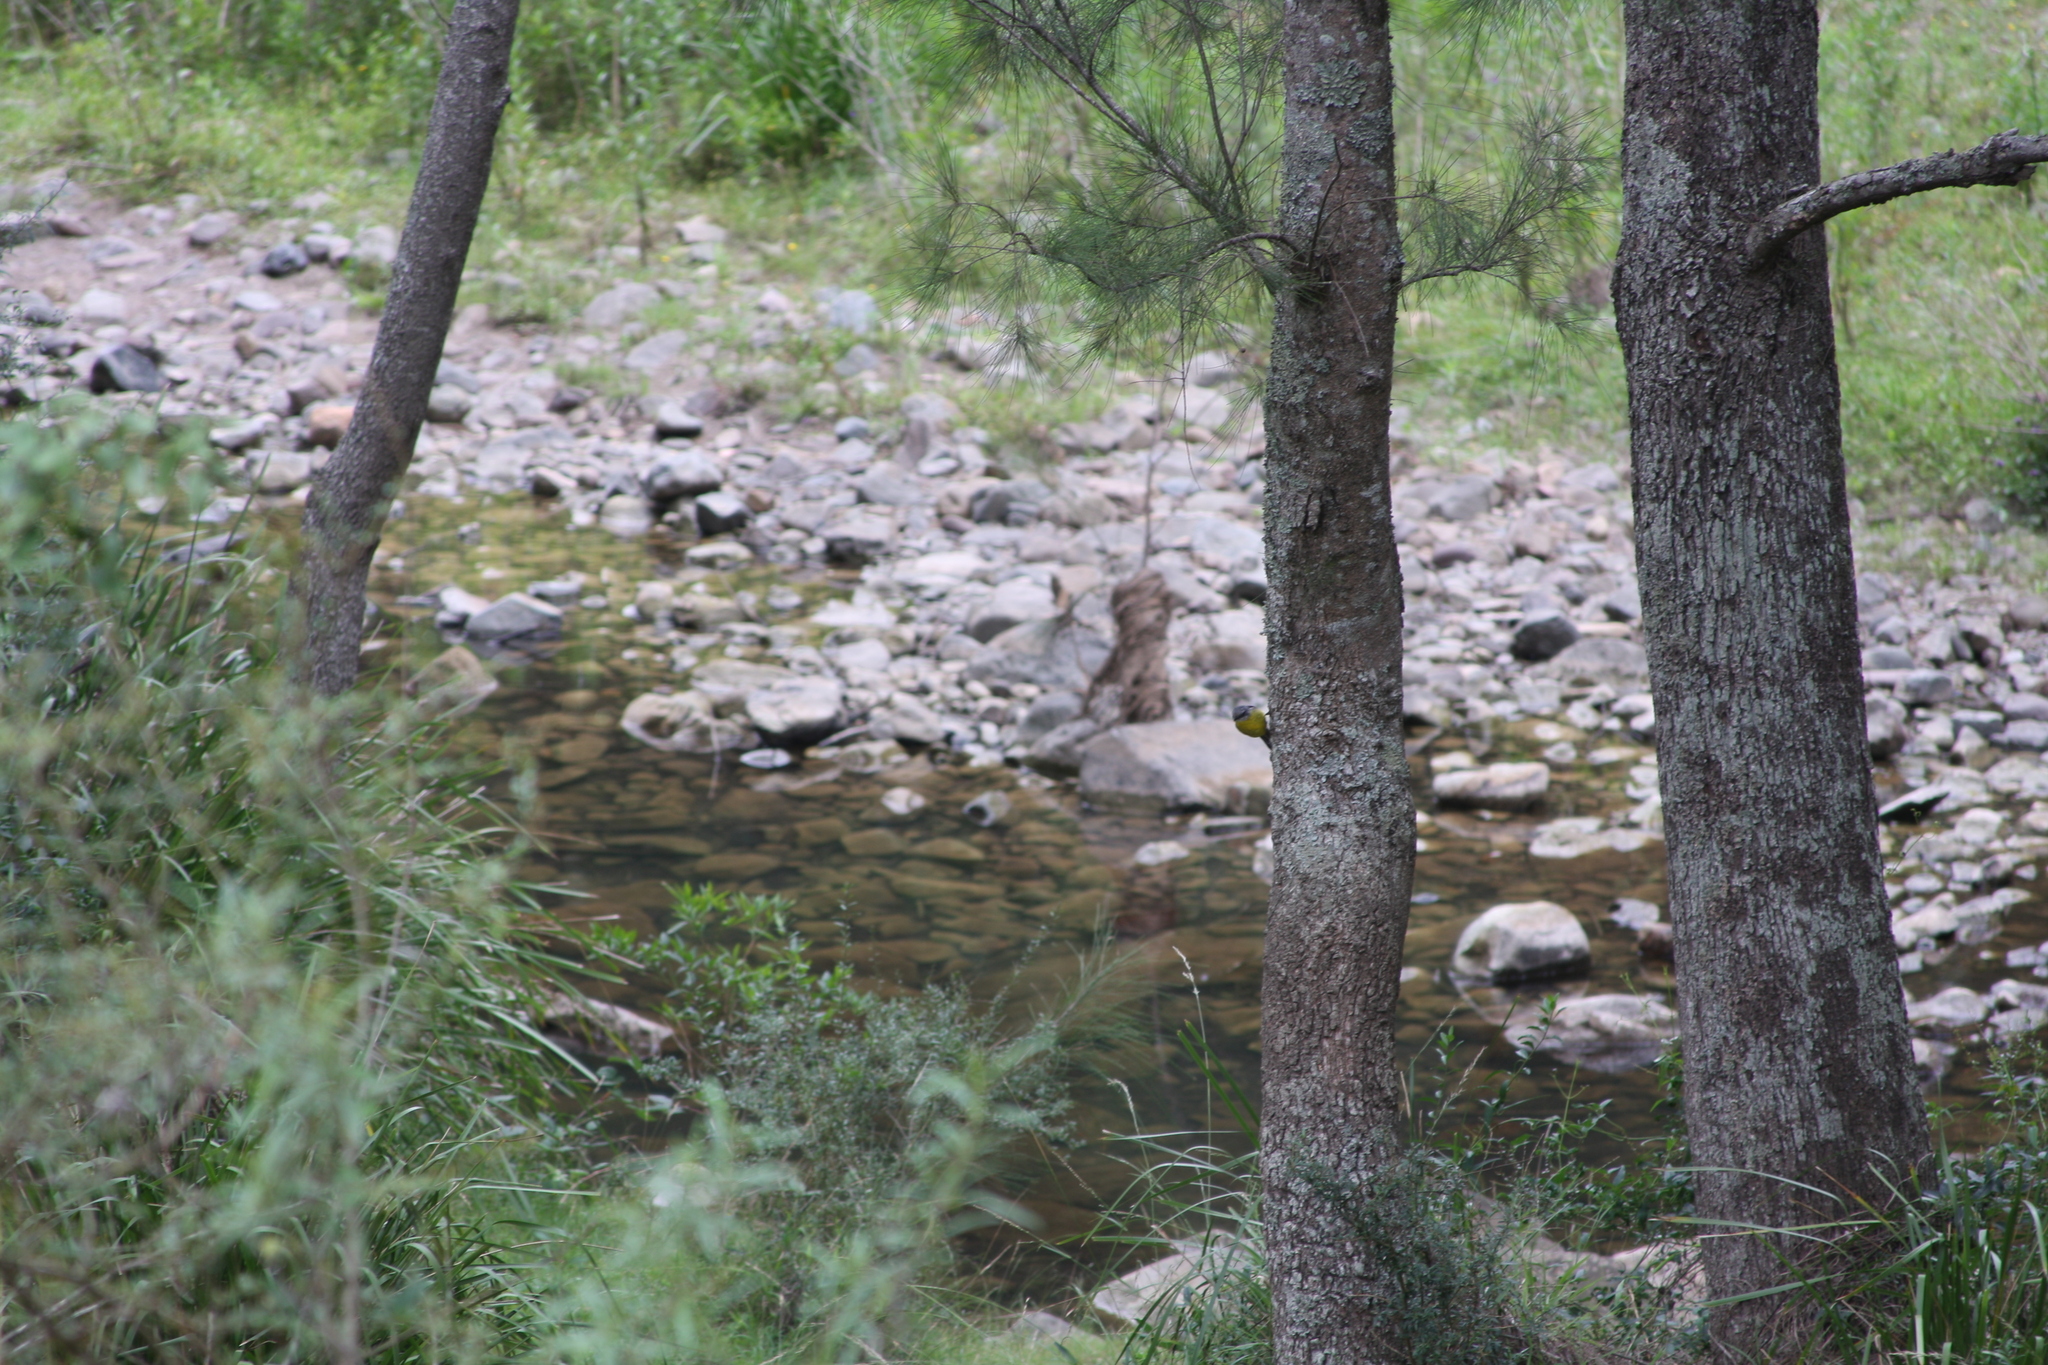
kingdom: Animalia
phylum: Chordata
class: Aves
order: Passeriformes
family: Petroicidae
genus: Eopsaltria
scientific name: Eopsaltria australis
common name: Eastern yellow robin
